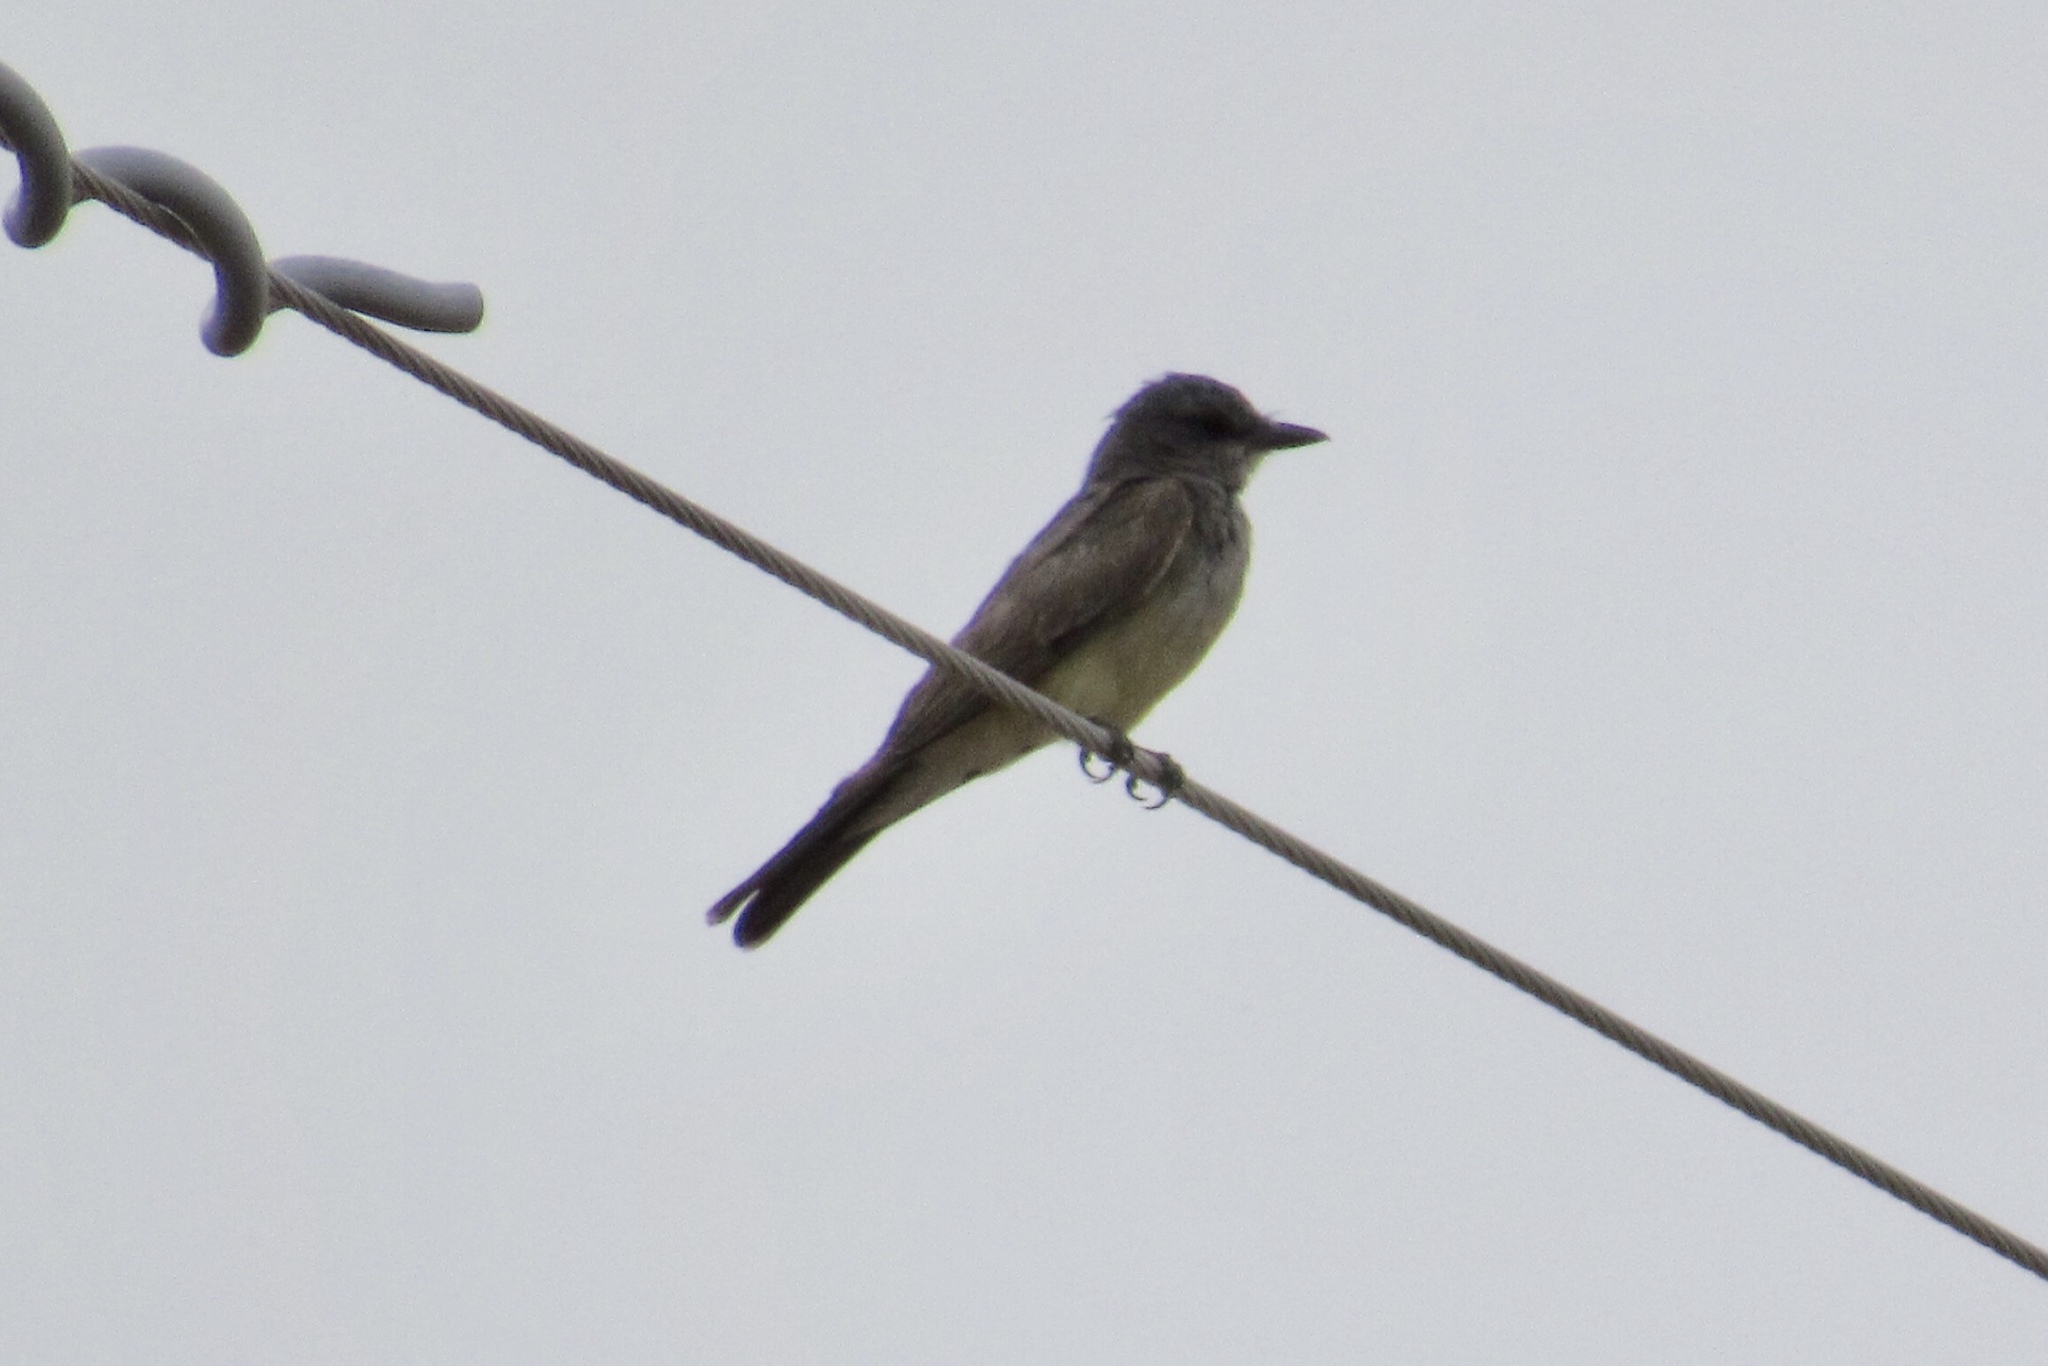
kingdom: Animalia
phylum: Chordata
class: Aves
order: Passeriformes
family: Tyrannidae
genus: Tyrannus
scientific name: Tyrannus vociferans
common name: Cassin's kingbird
